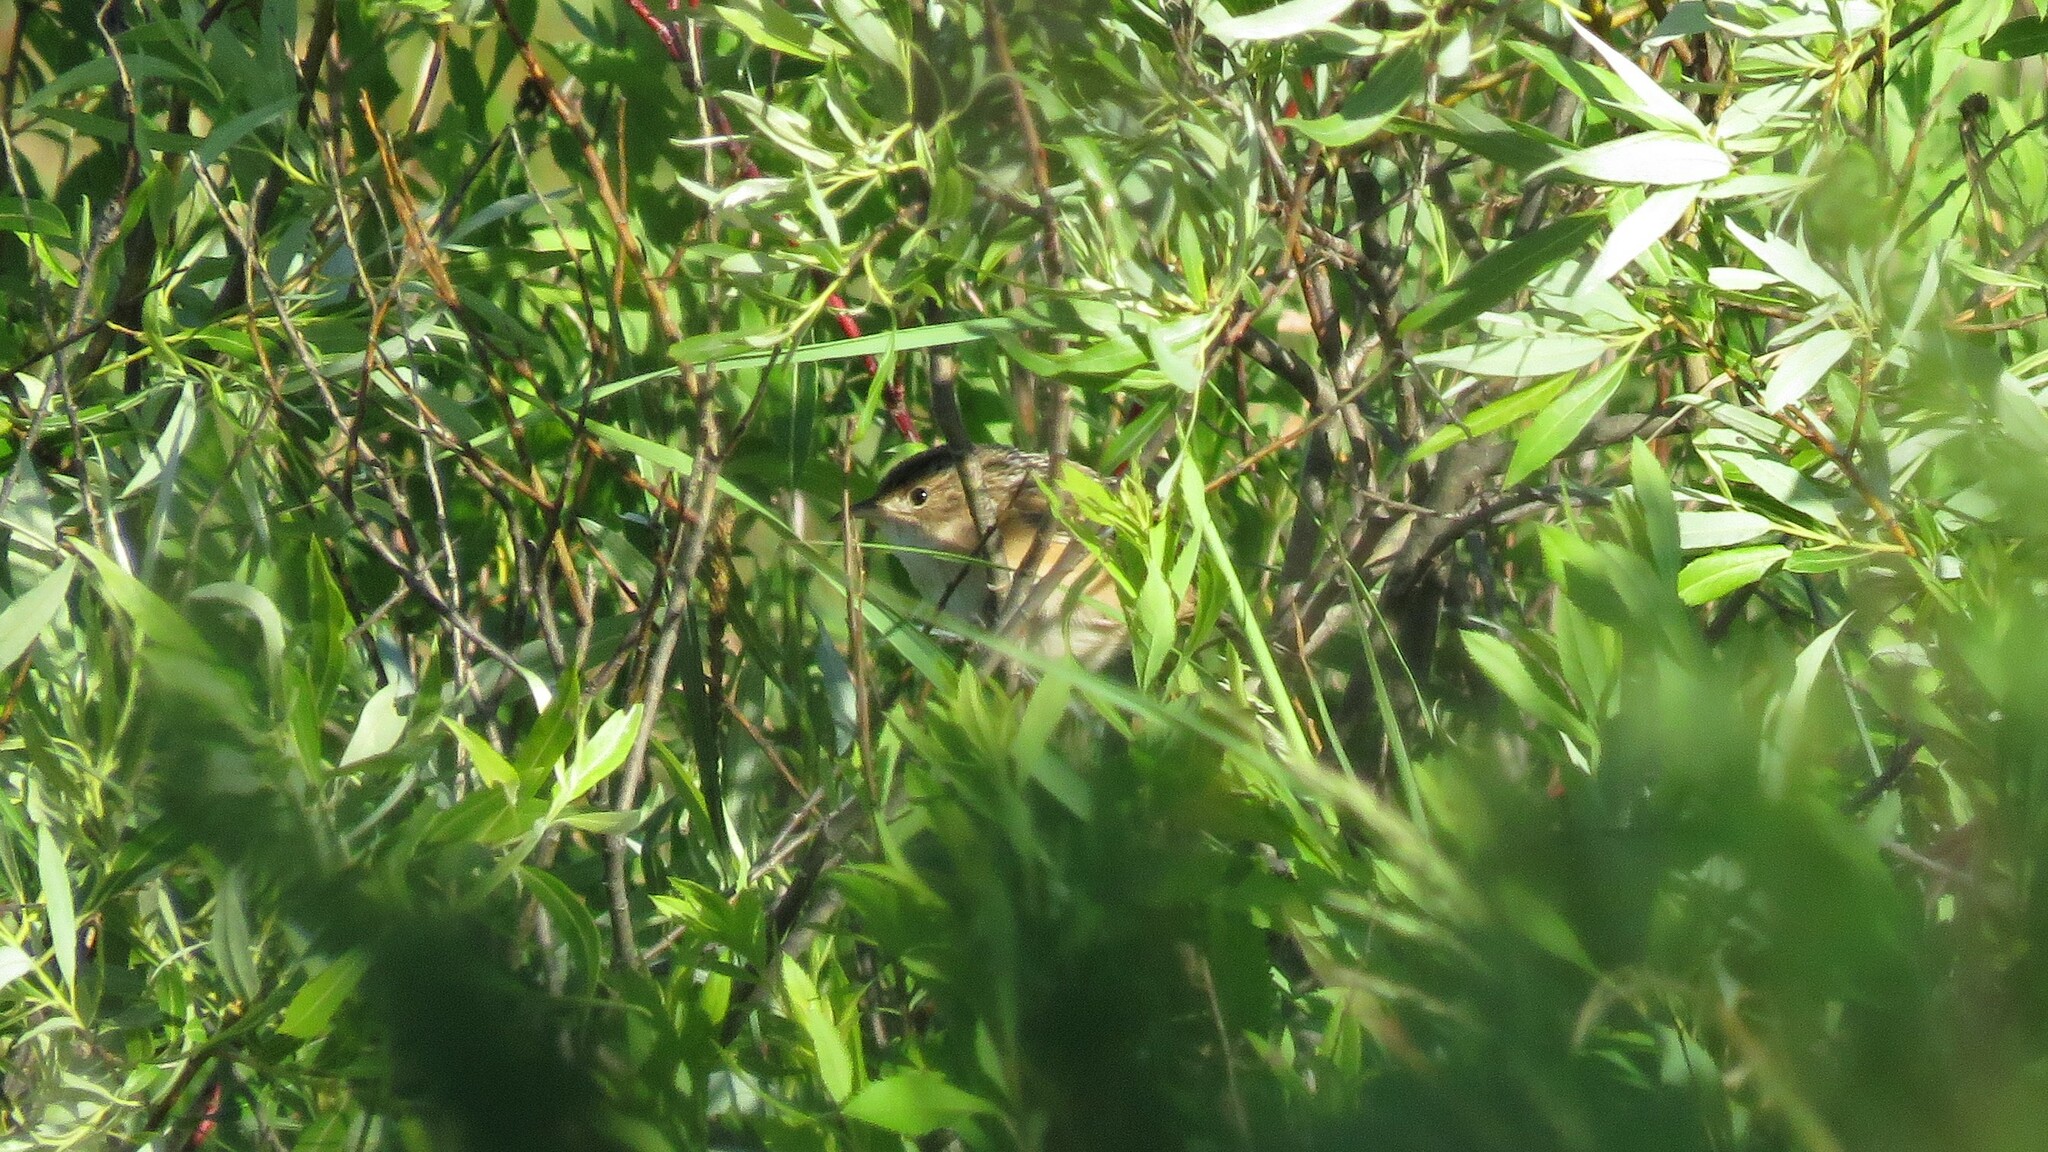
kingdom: Animalia
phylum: Chordata
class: Aves
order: Passeriformes
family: Troglodytidae
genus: Cistothorus
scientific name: Cistothorus platensis
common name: Sedge wren
